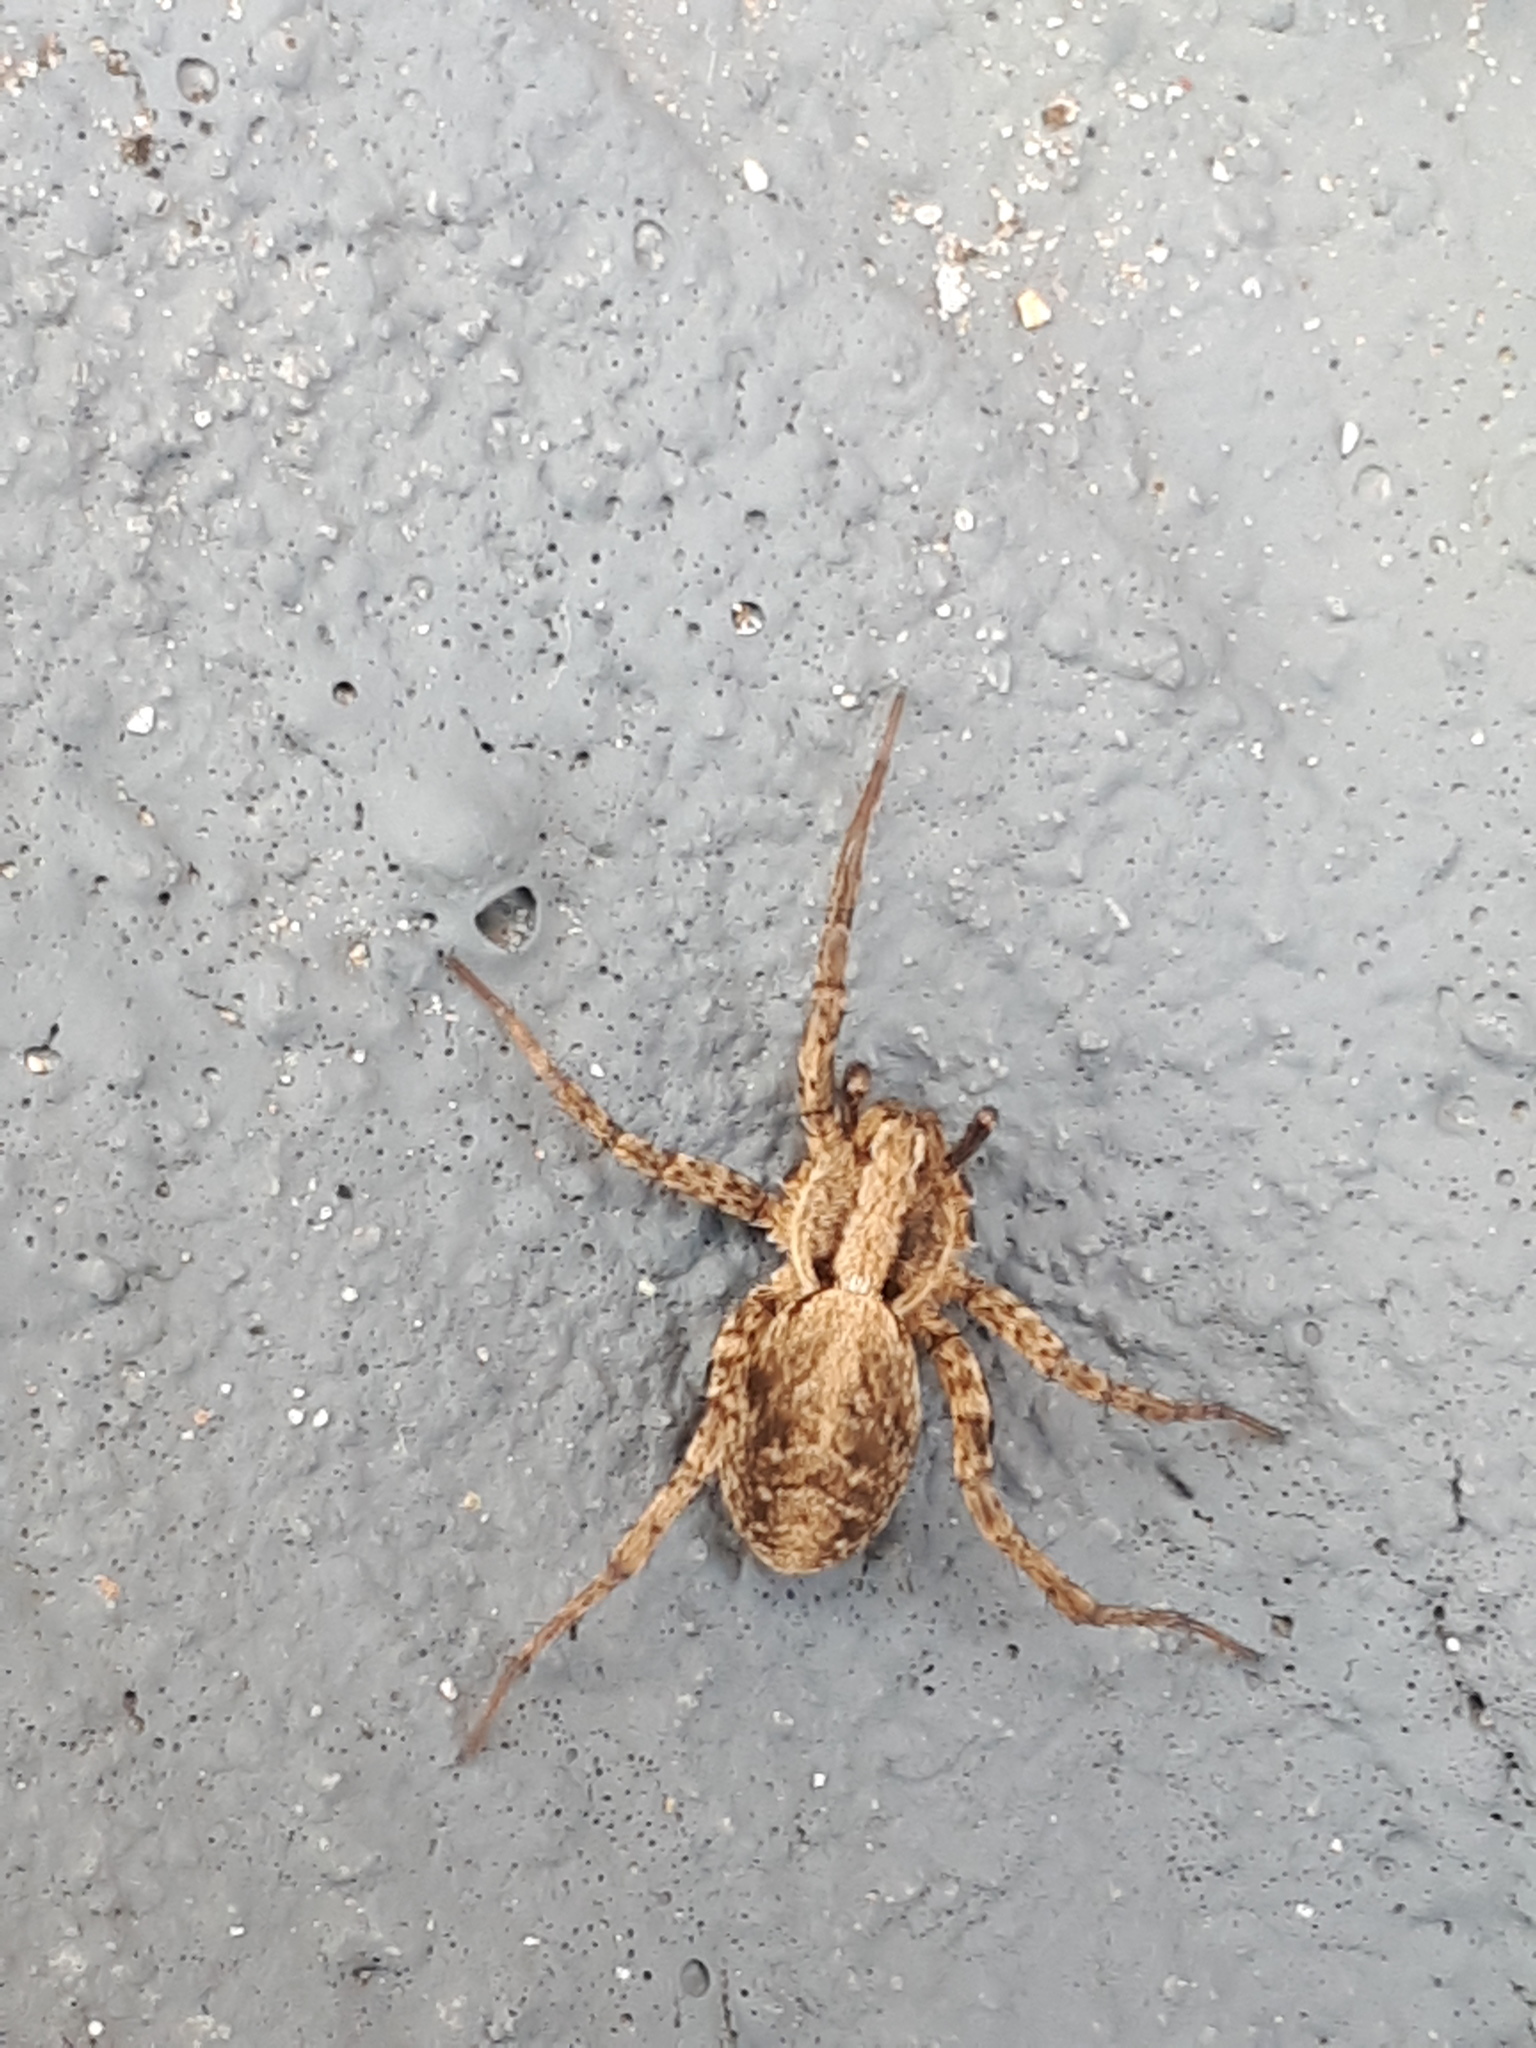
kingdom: Animalia
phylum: Arthropoda
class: Arachnida
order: Araneae
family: Lycosidae
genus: Xerolycosa
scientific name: Xerolycosa miniata
